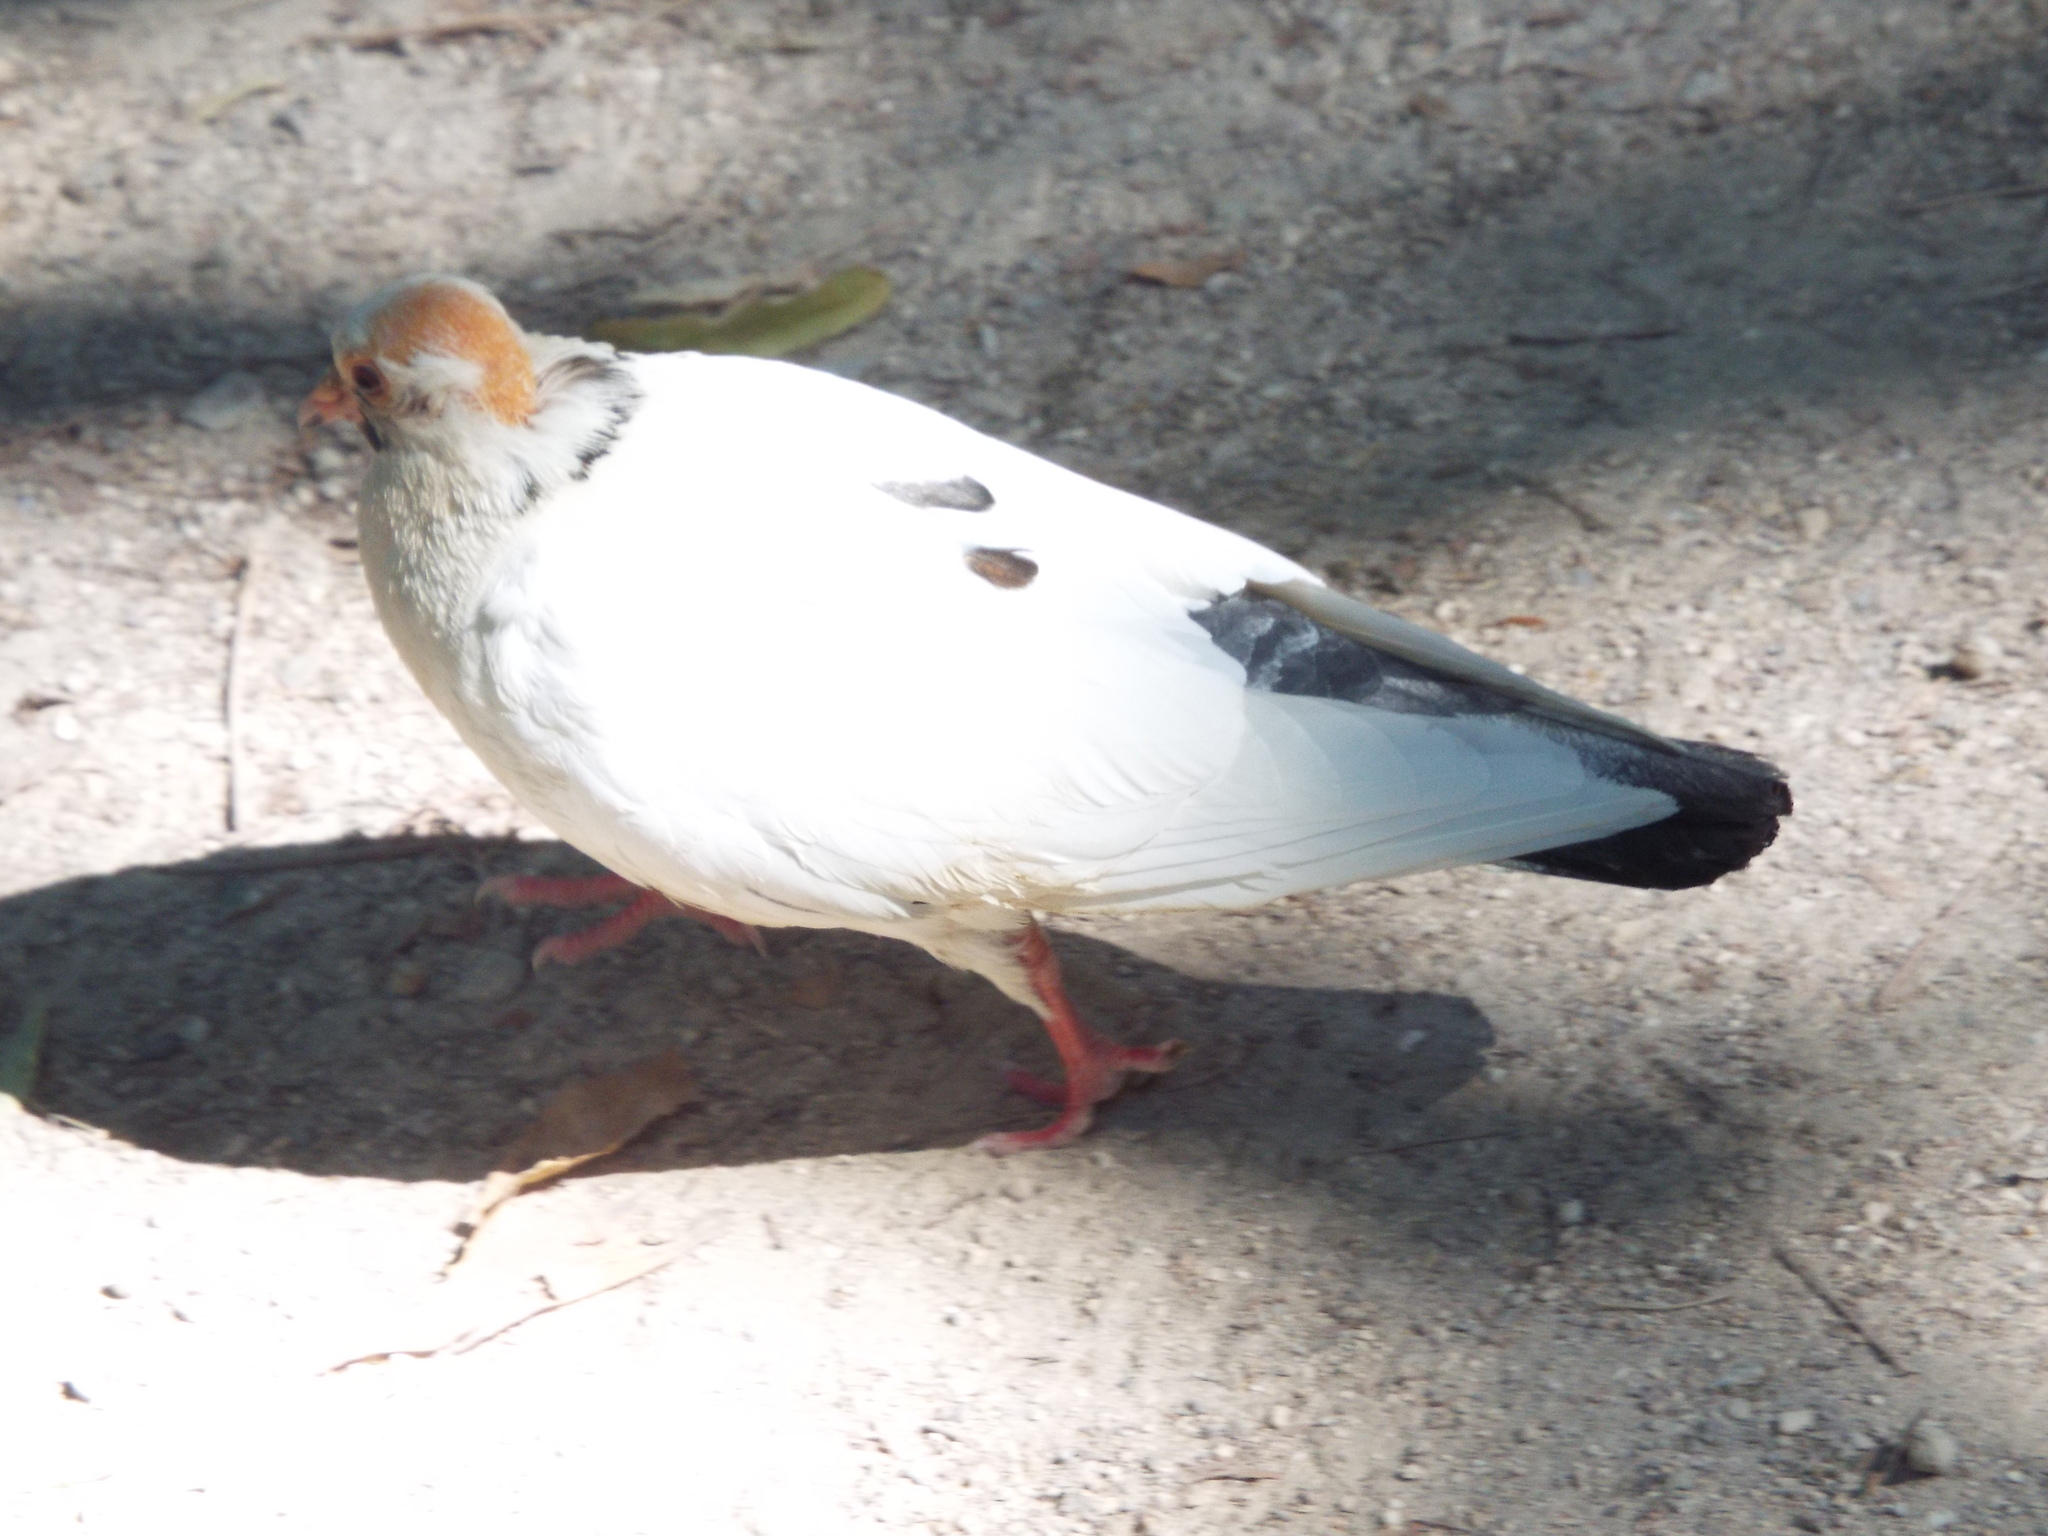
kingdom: Animalia
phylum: Chordata
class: Aves
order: Columbiformes
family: Columbidae
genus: Columba
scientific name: Columba livia
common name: Rock pigeon
